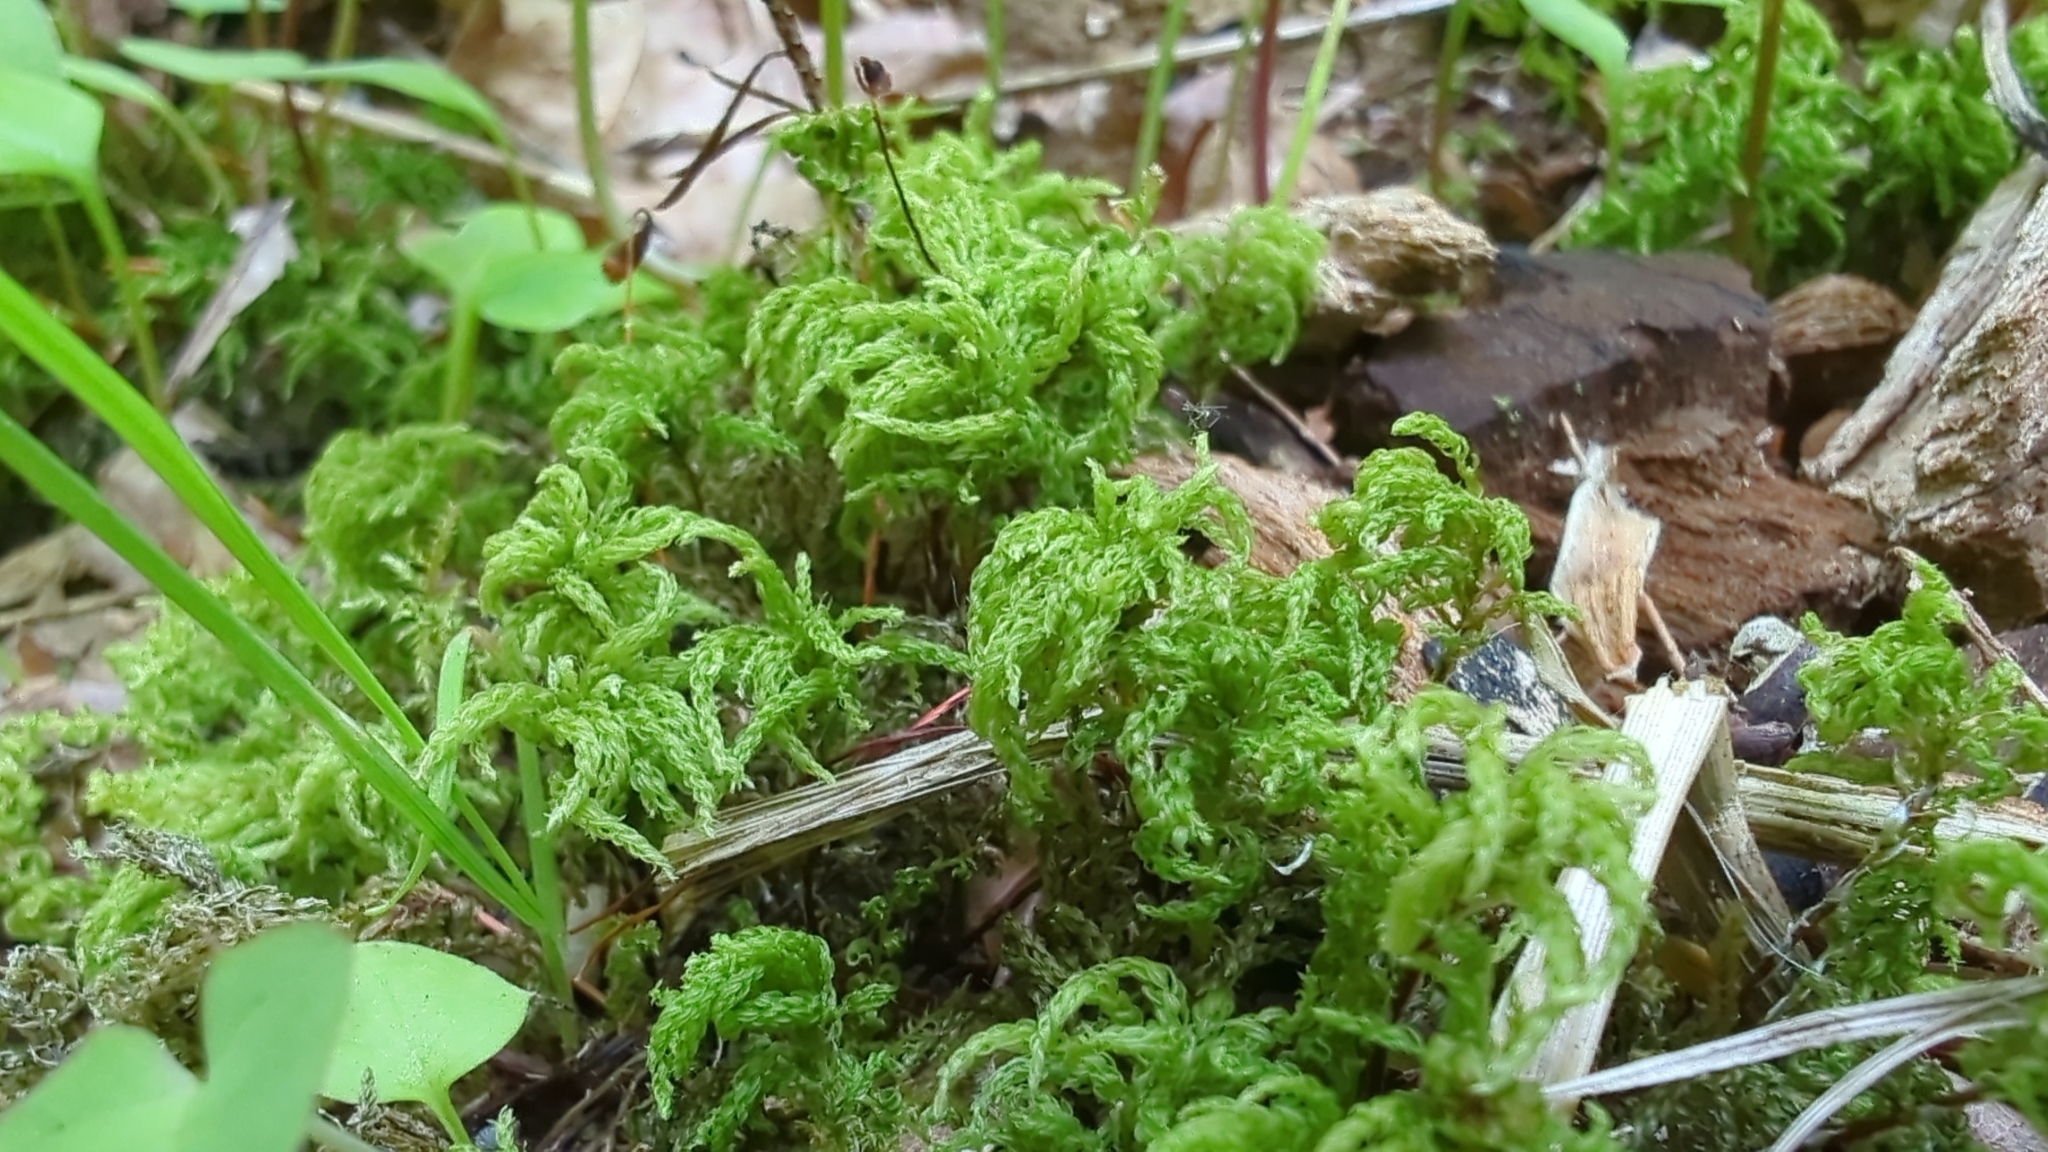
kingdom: Plantae
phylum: Bryophyta
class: Bryopsida
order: Bryales
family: Mniaceae
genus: Leucolepis
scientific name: Leucolepis acanthoneura
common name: Leucolepis umbrella moss
